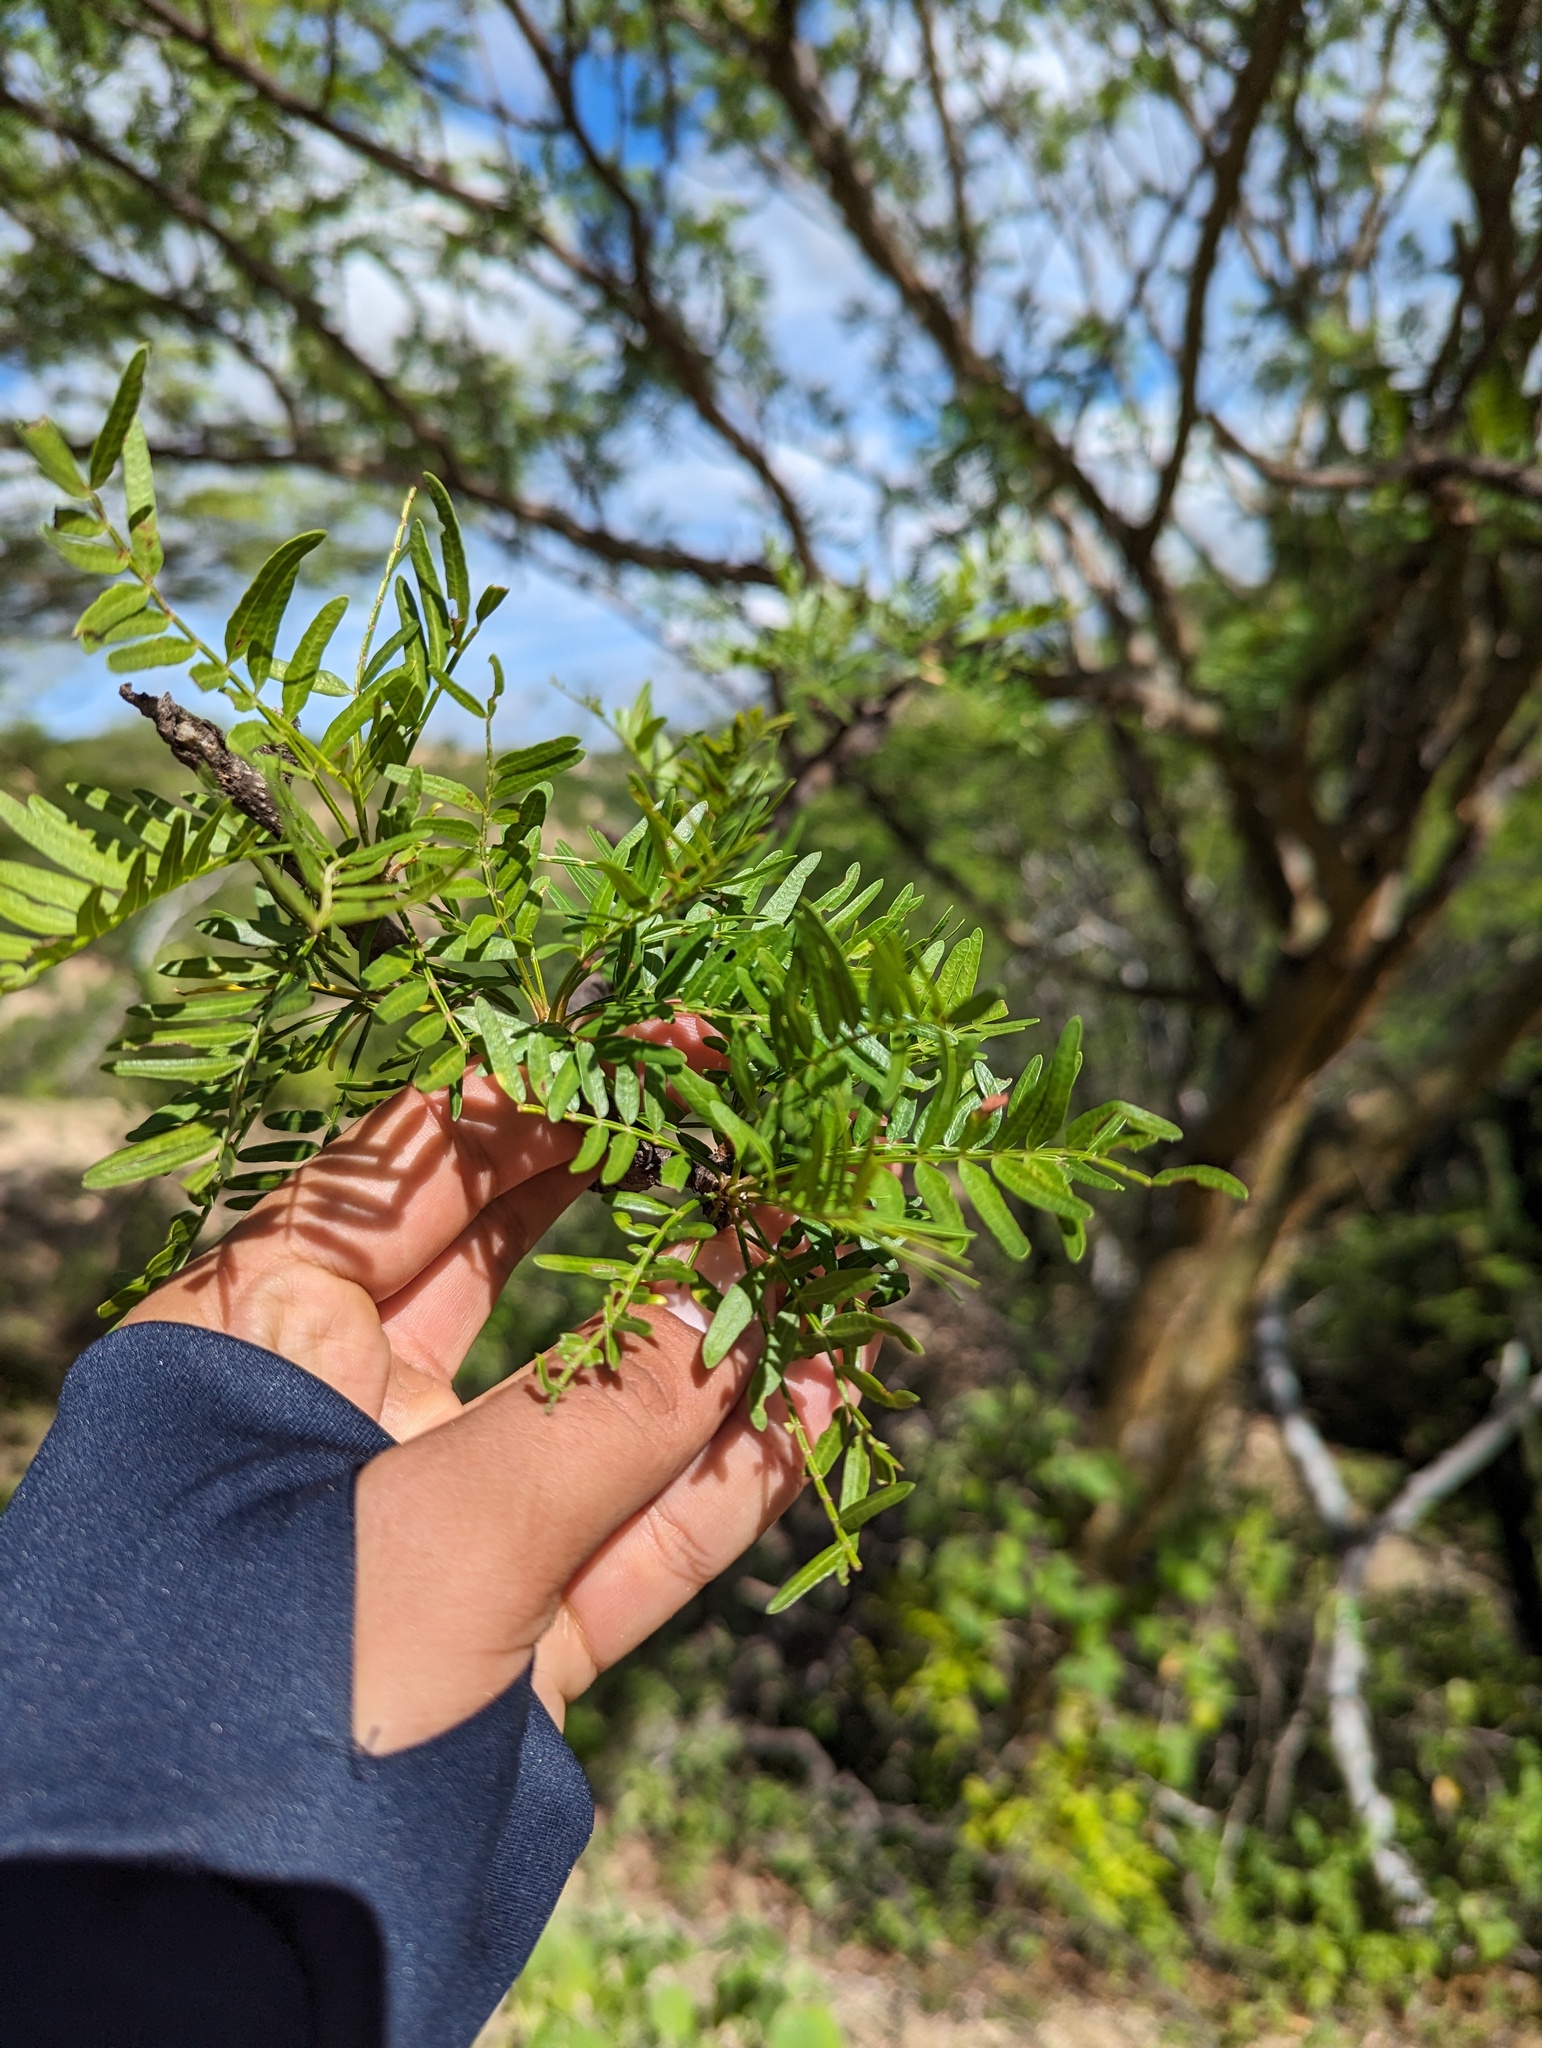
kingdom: Plantae
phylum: Tracheophyta
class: Magnoliopsida
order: Sapindales
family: Burseraceae
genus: Bursera
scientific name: Bursera microphylla
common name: Elephant tree
